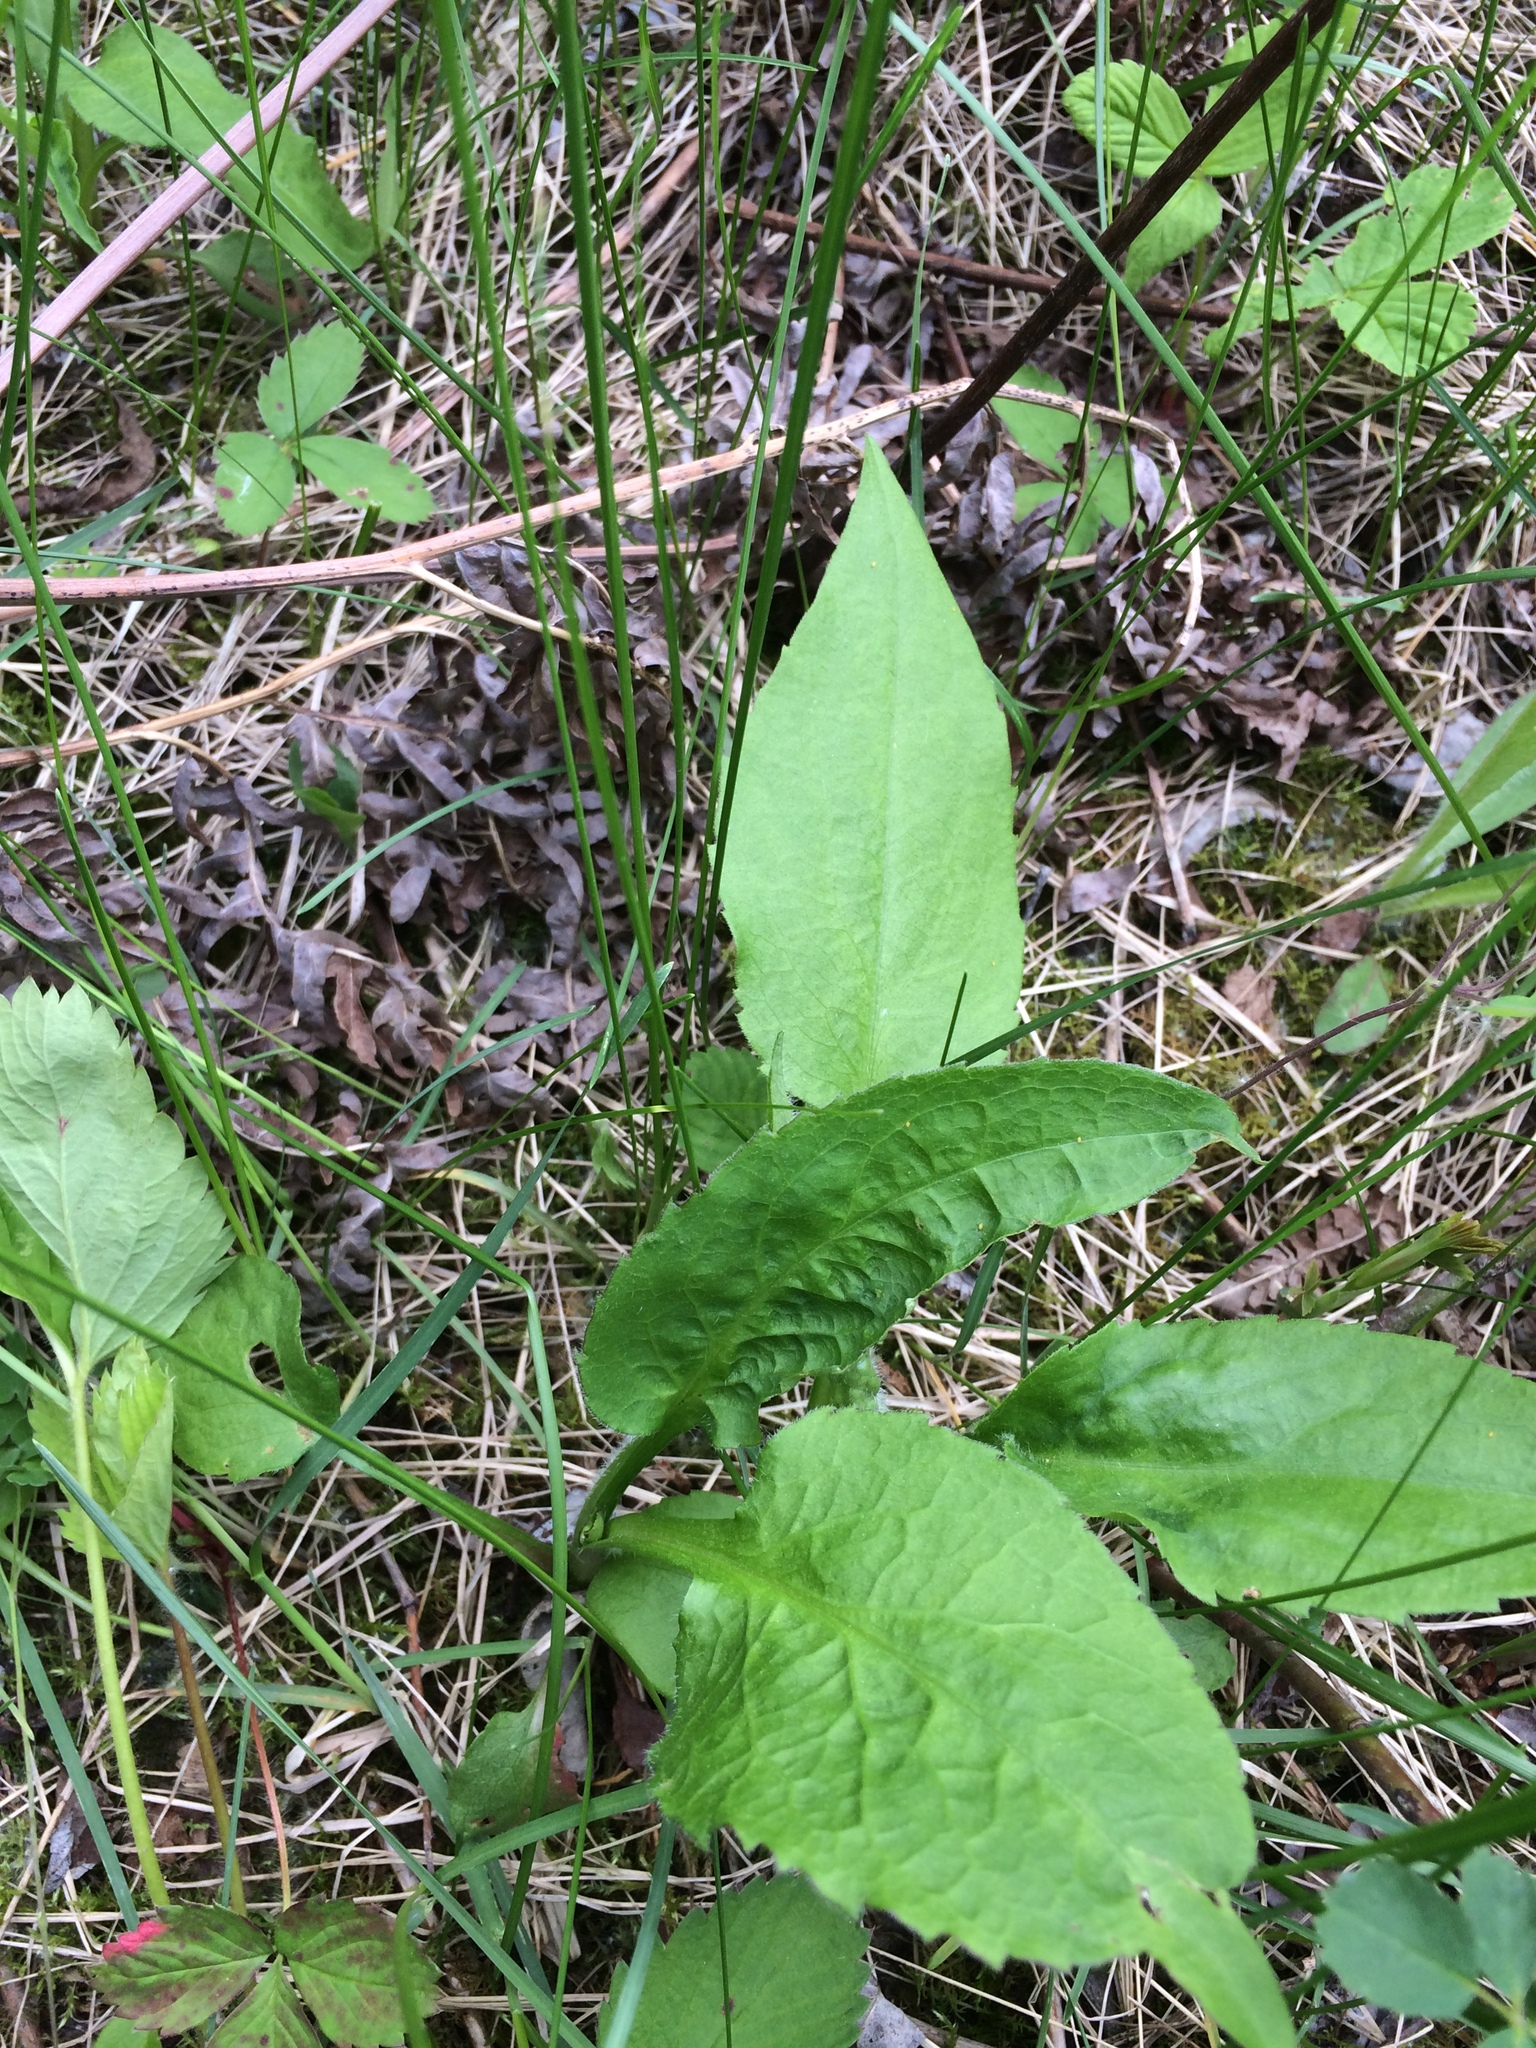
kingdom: Plantae
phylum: Tracheophyta
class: Magnoliopsida
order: Asterales
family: Asteraceae
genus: Symphyotrichum
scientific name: Symphyotrichum ciliolatum
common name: Fringed blue aster
